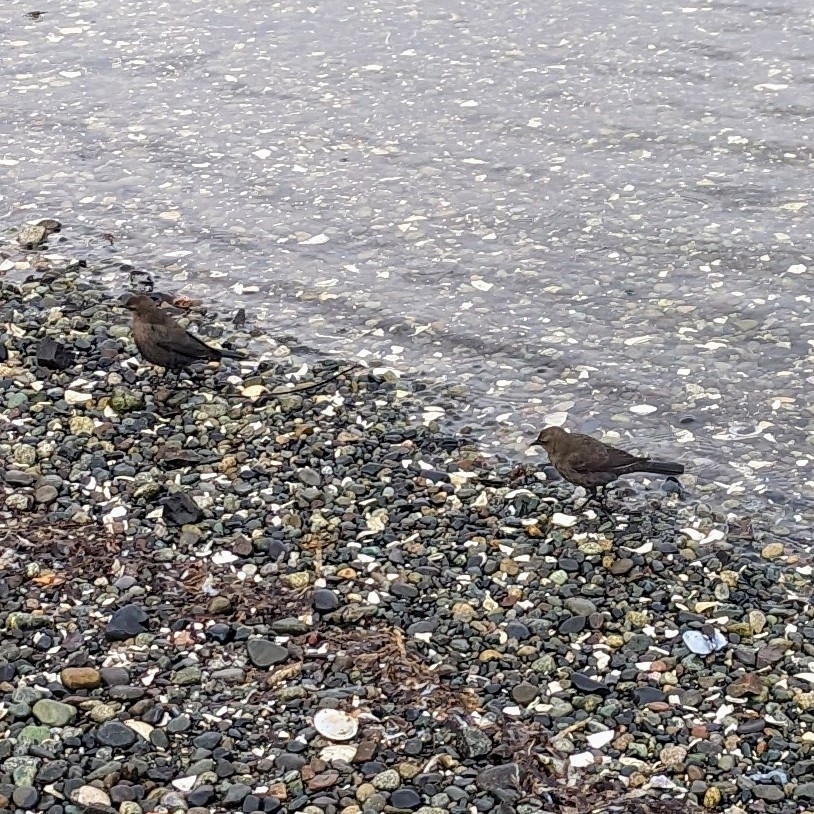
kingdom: Animalia
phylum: Chordata
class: Aves
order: Passeriformes
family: Icteridae
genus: Euphagus
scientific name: Euphagus cyanocephalus
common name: Brewer's blackbird
